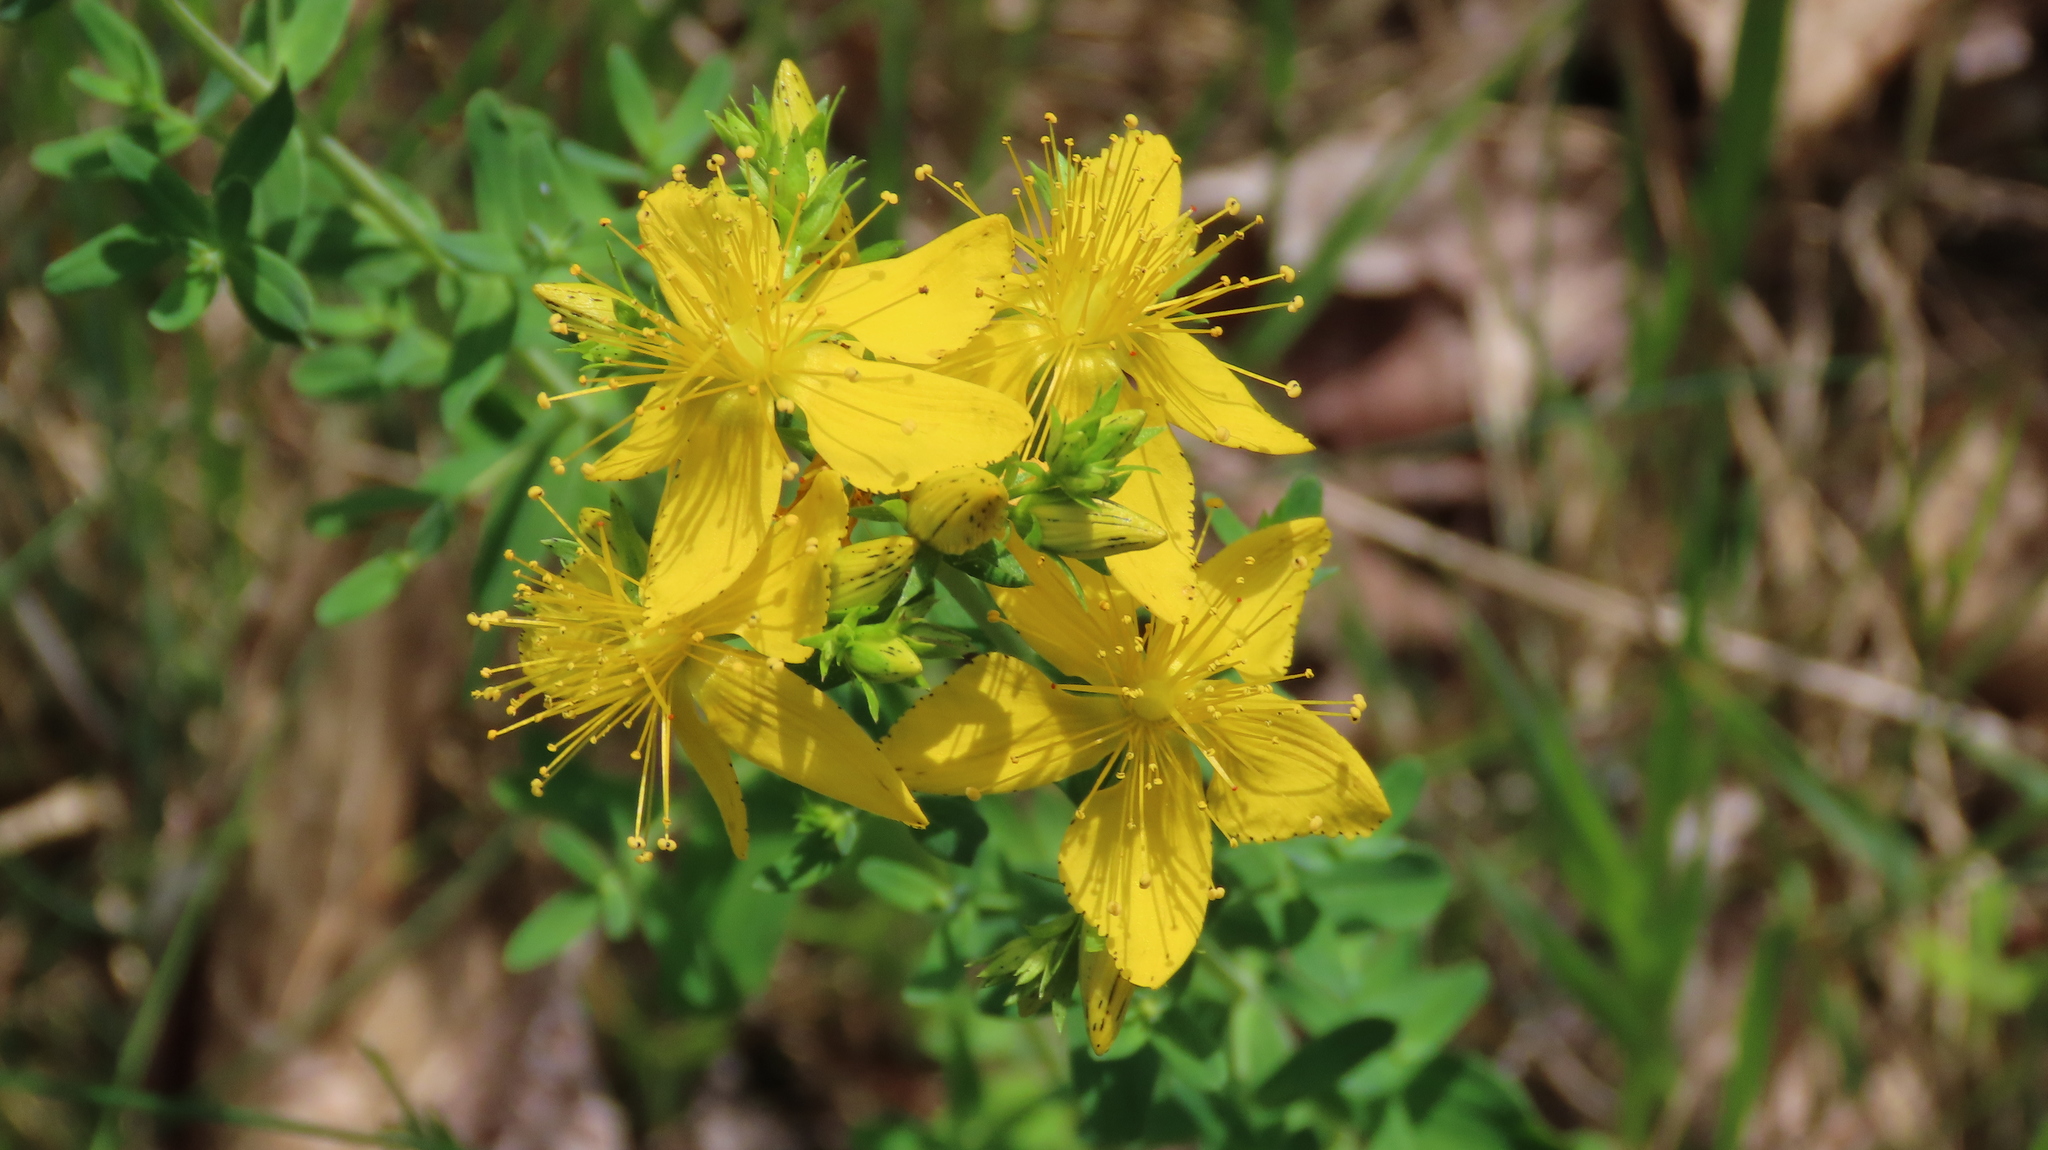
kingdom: Plantae
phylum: Tracheophyta
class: Magnoliopsida
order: Malpighiales
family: Hypericaceae
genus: Hypericum
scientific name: Hypericum perforatum
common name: Common st. johnswort
